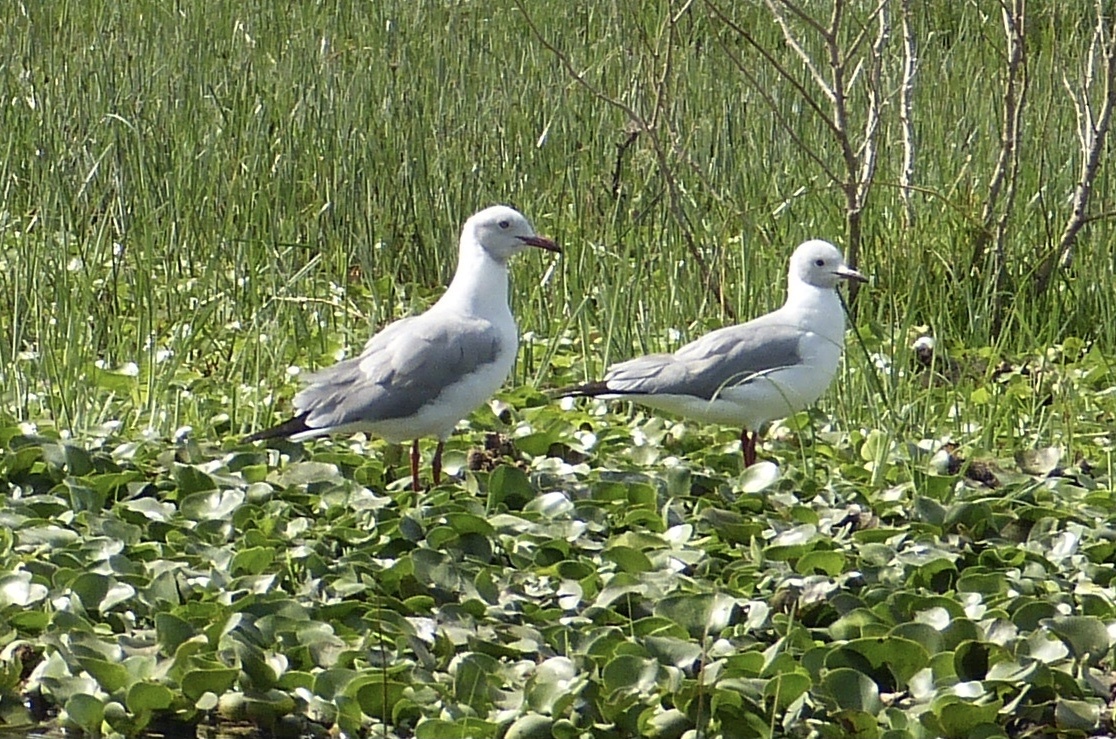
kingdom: Animalia
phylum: Chordata
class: Aves
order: Charadriiformes
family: Laridae
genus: Chroicocephalus
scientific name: Chroicocephalus cirrocephalus
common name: Grey-headed gull
